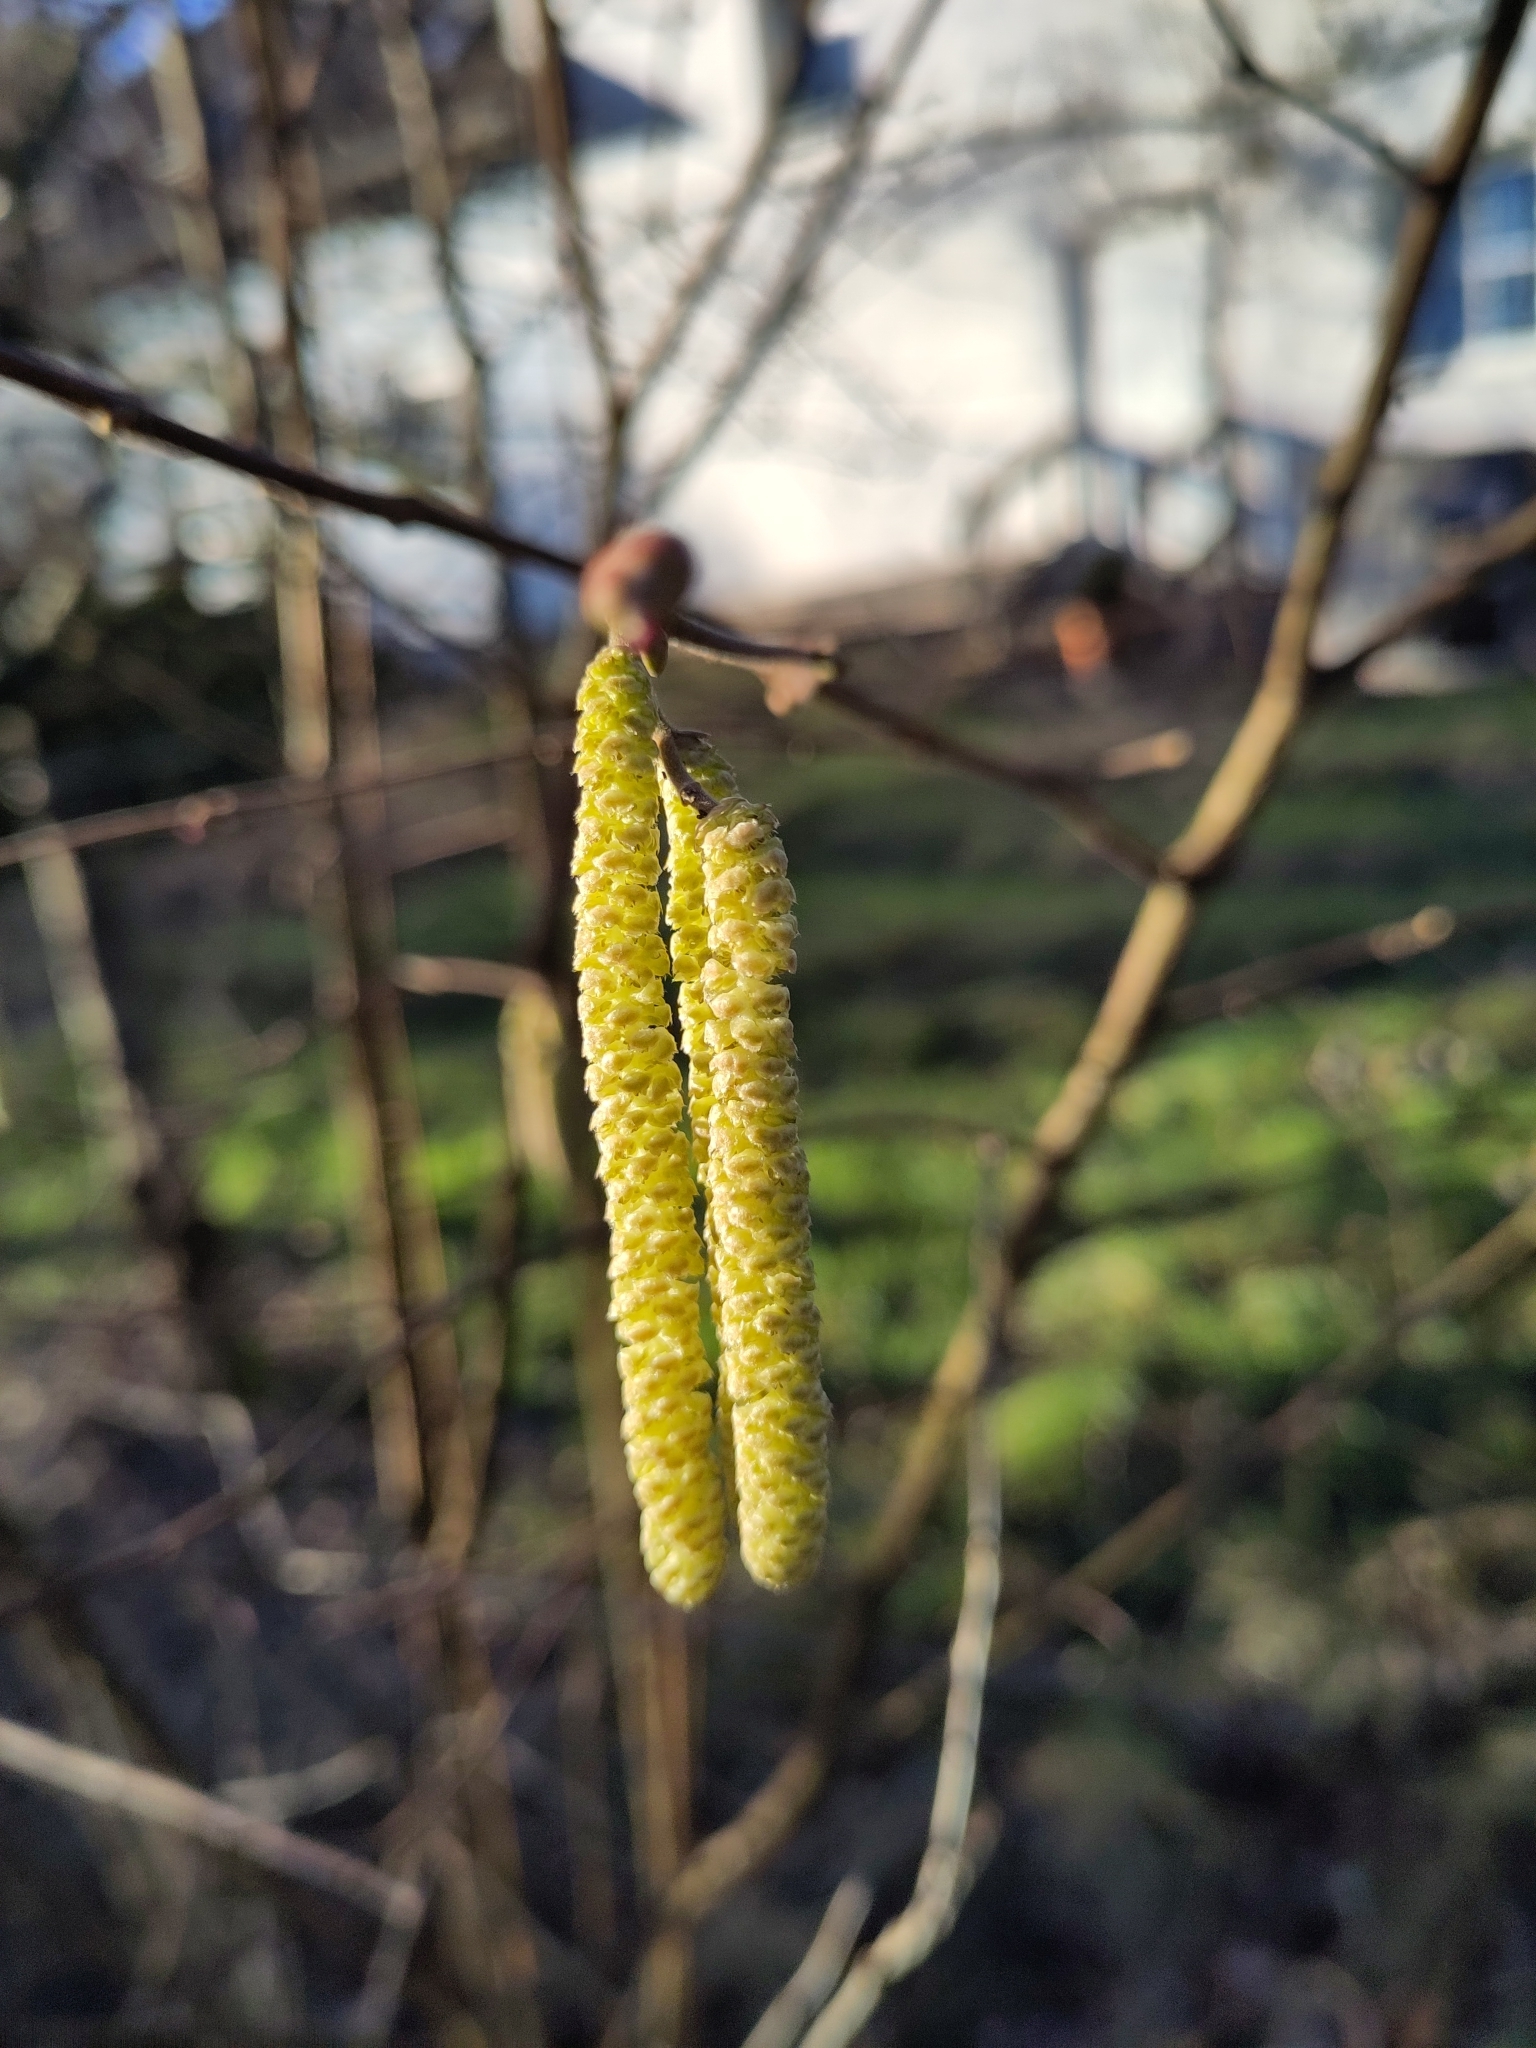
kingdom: Plantae
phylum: Tracheophyta
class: Magnoliopsida
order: Fagales
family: Betulaceae
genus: Corylus
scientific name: Corylus avellana
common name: European hazel
